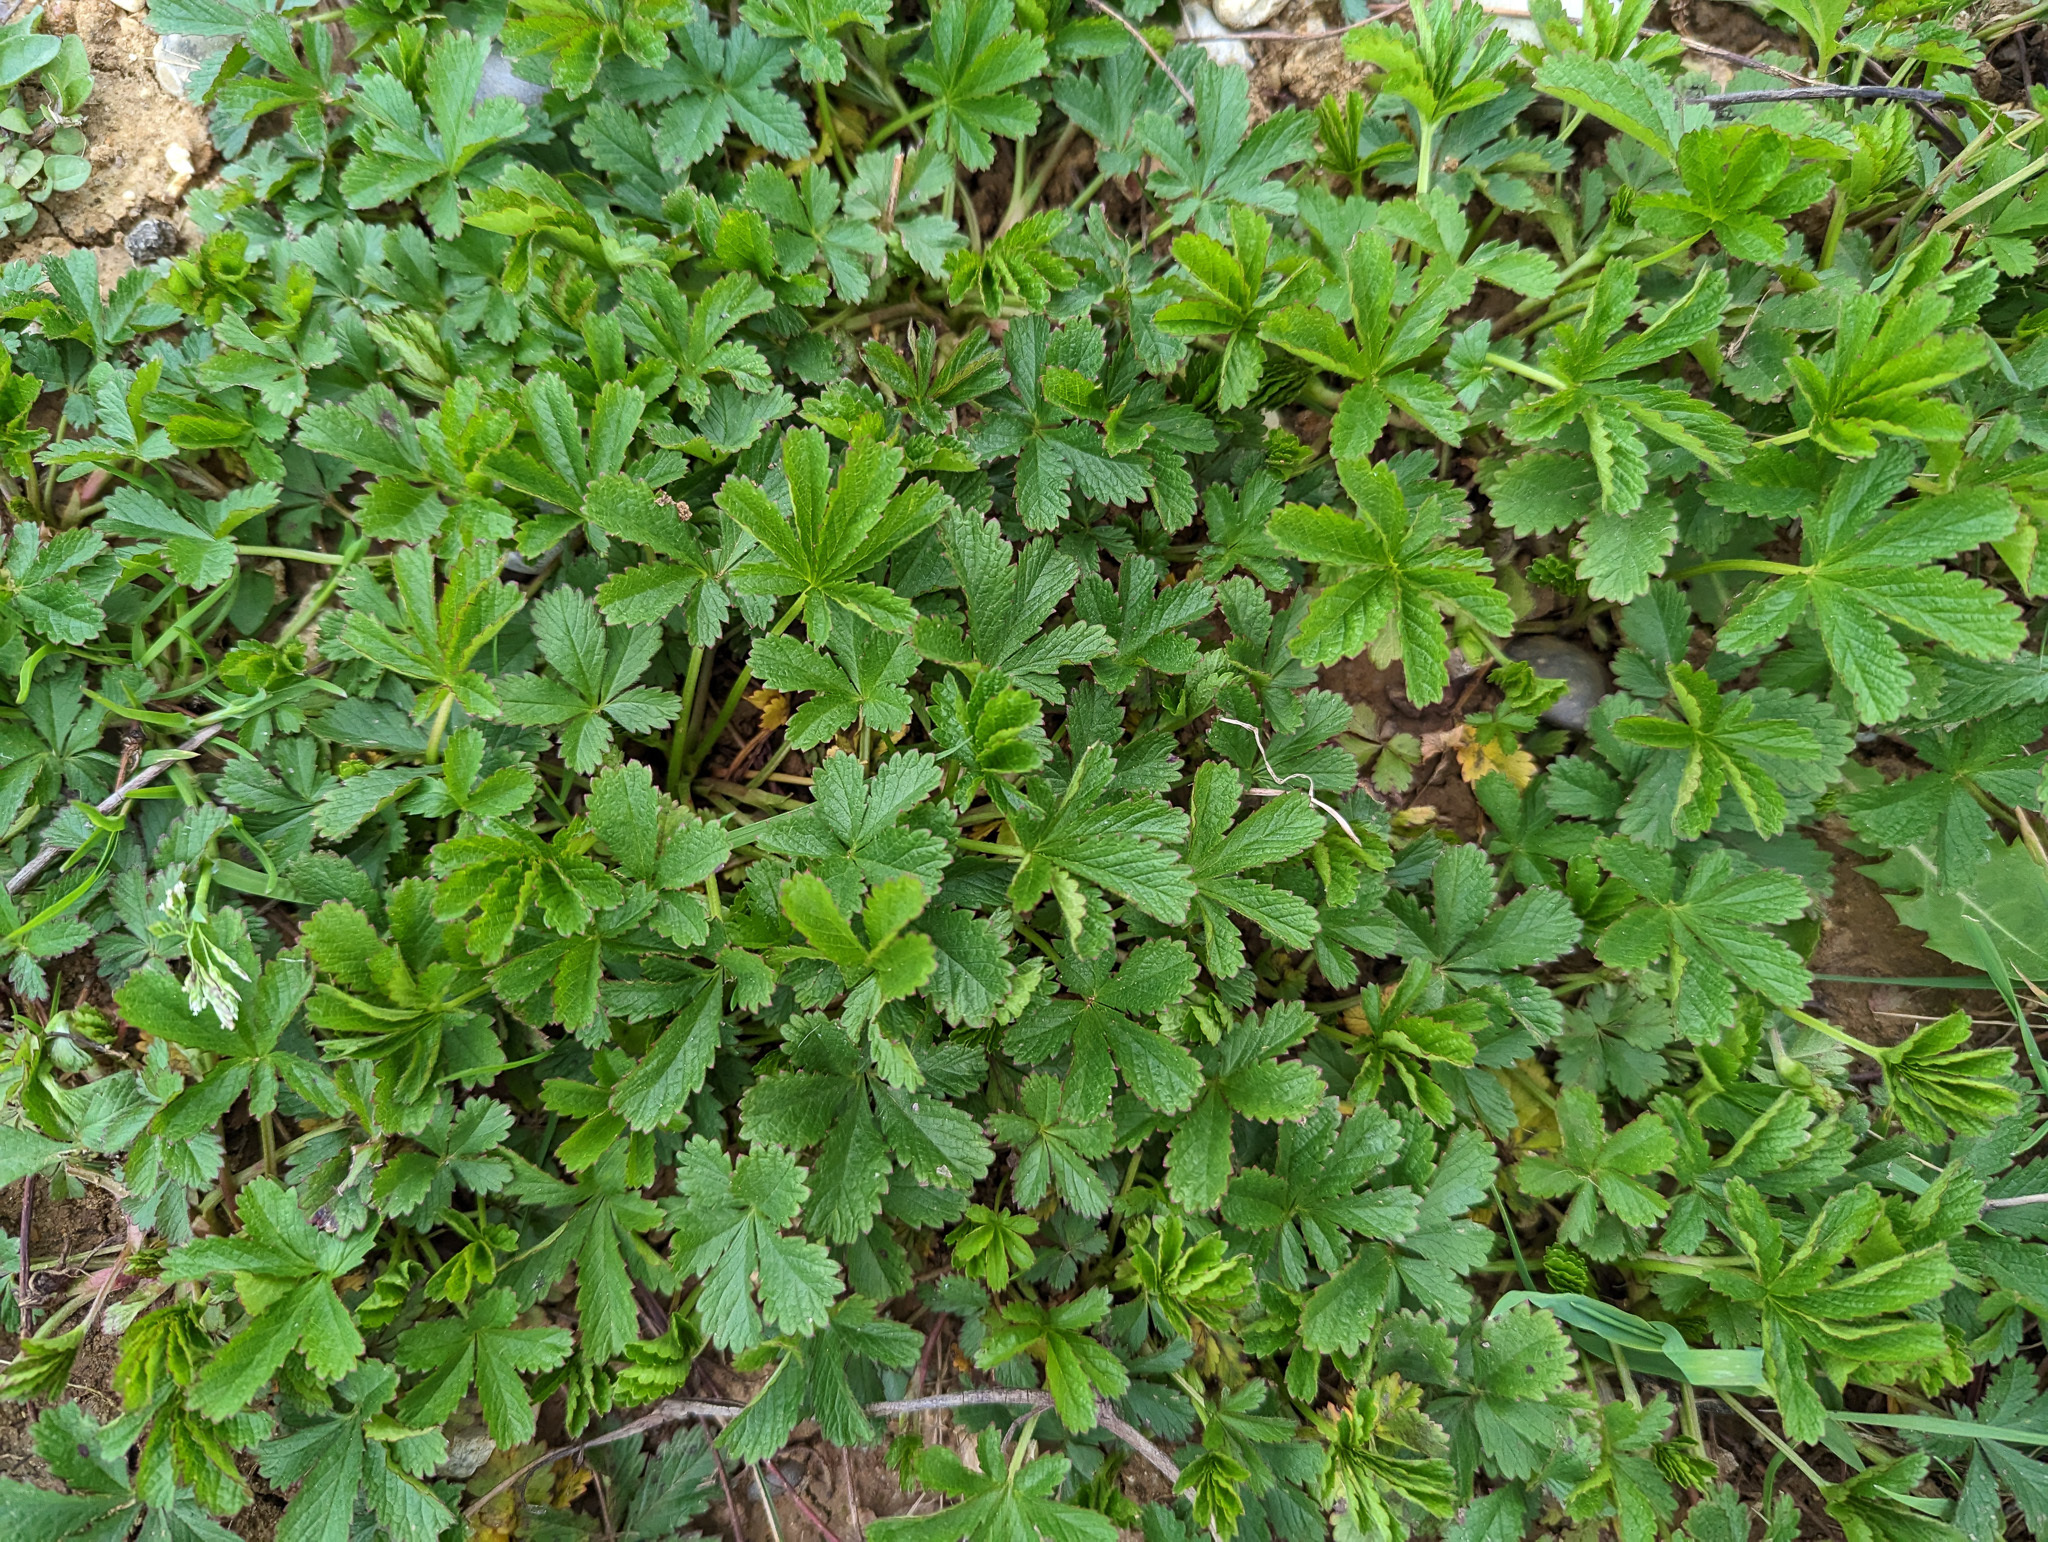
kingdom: Plantae
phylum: Tracheophyta
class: Magnoliopsida
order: Rosales
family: Rosaceae
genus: Potentilla
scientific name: Potentilla reptans
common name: Creeping cinquefoil
